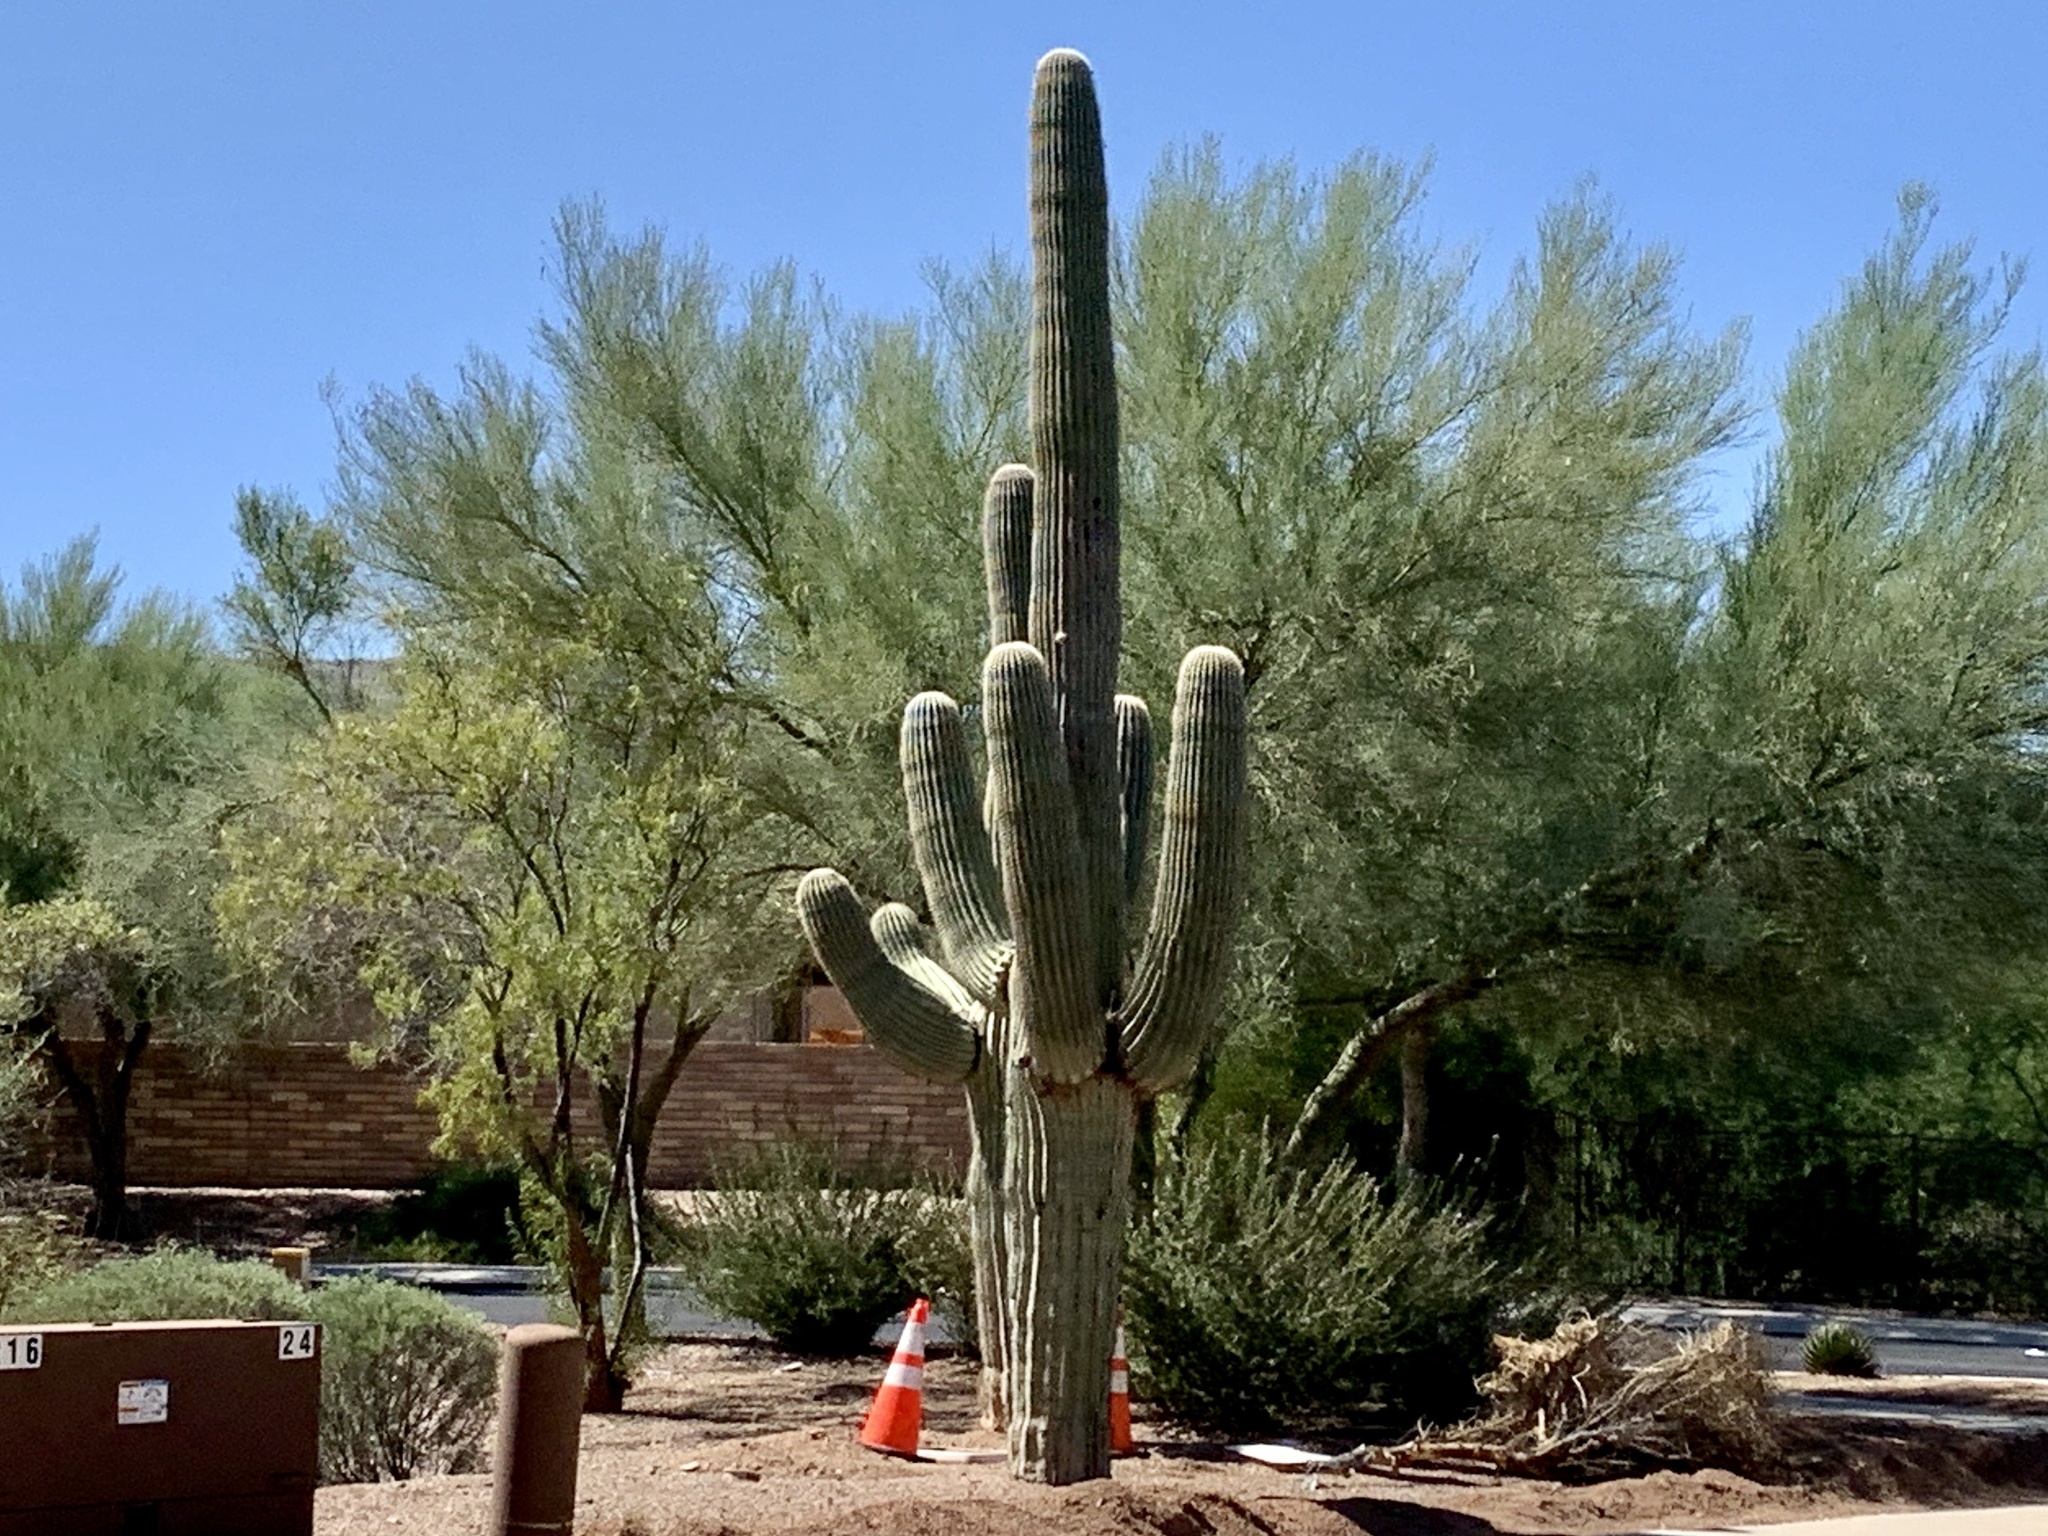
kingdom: Plantae
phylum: Tracheophyta
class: Magnoliopsida
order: Caryophyllales
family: Cactaceae
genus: Carnegiea
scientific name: Carnegiea gigantea
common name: Saguaro
